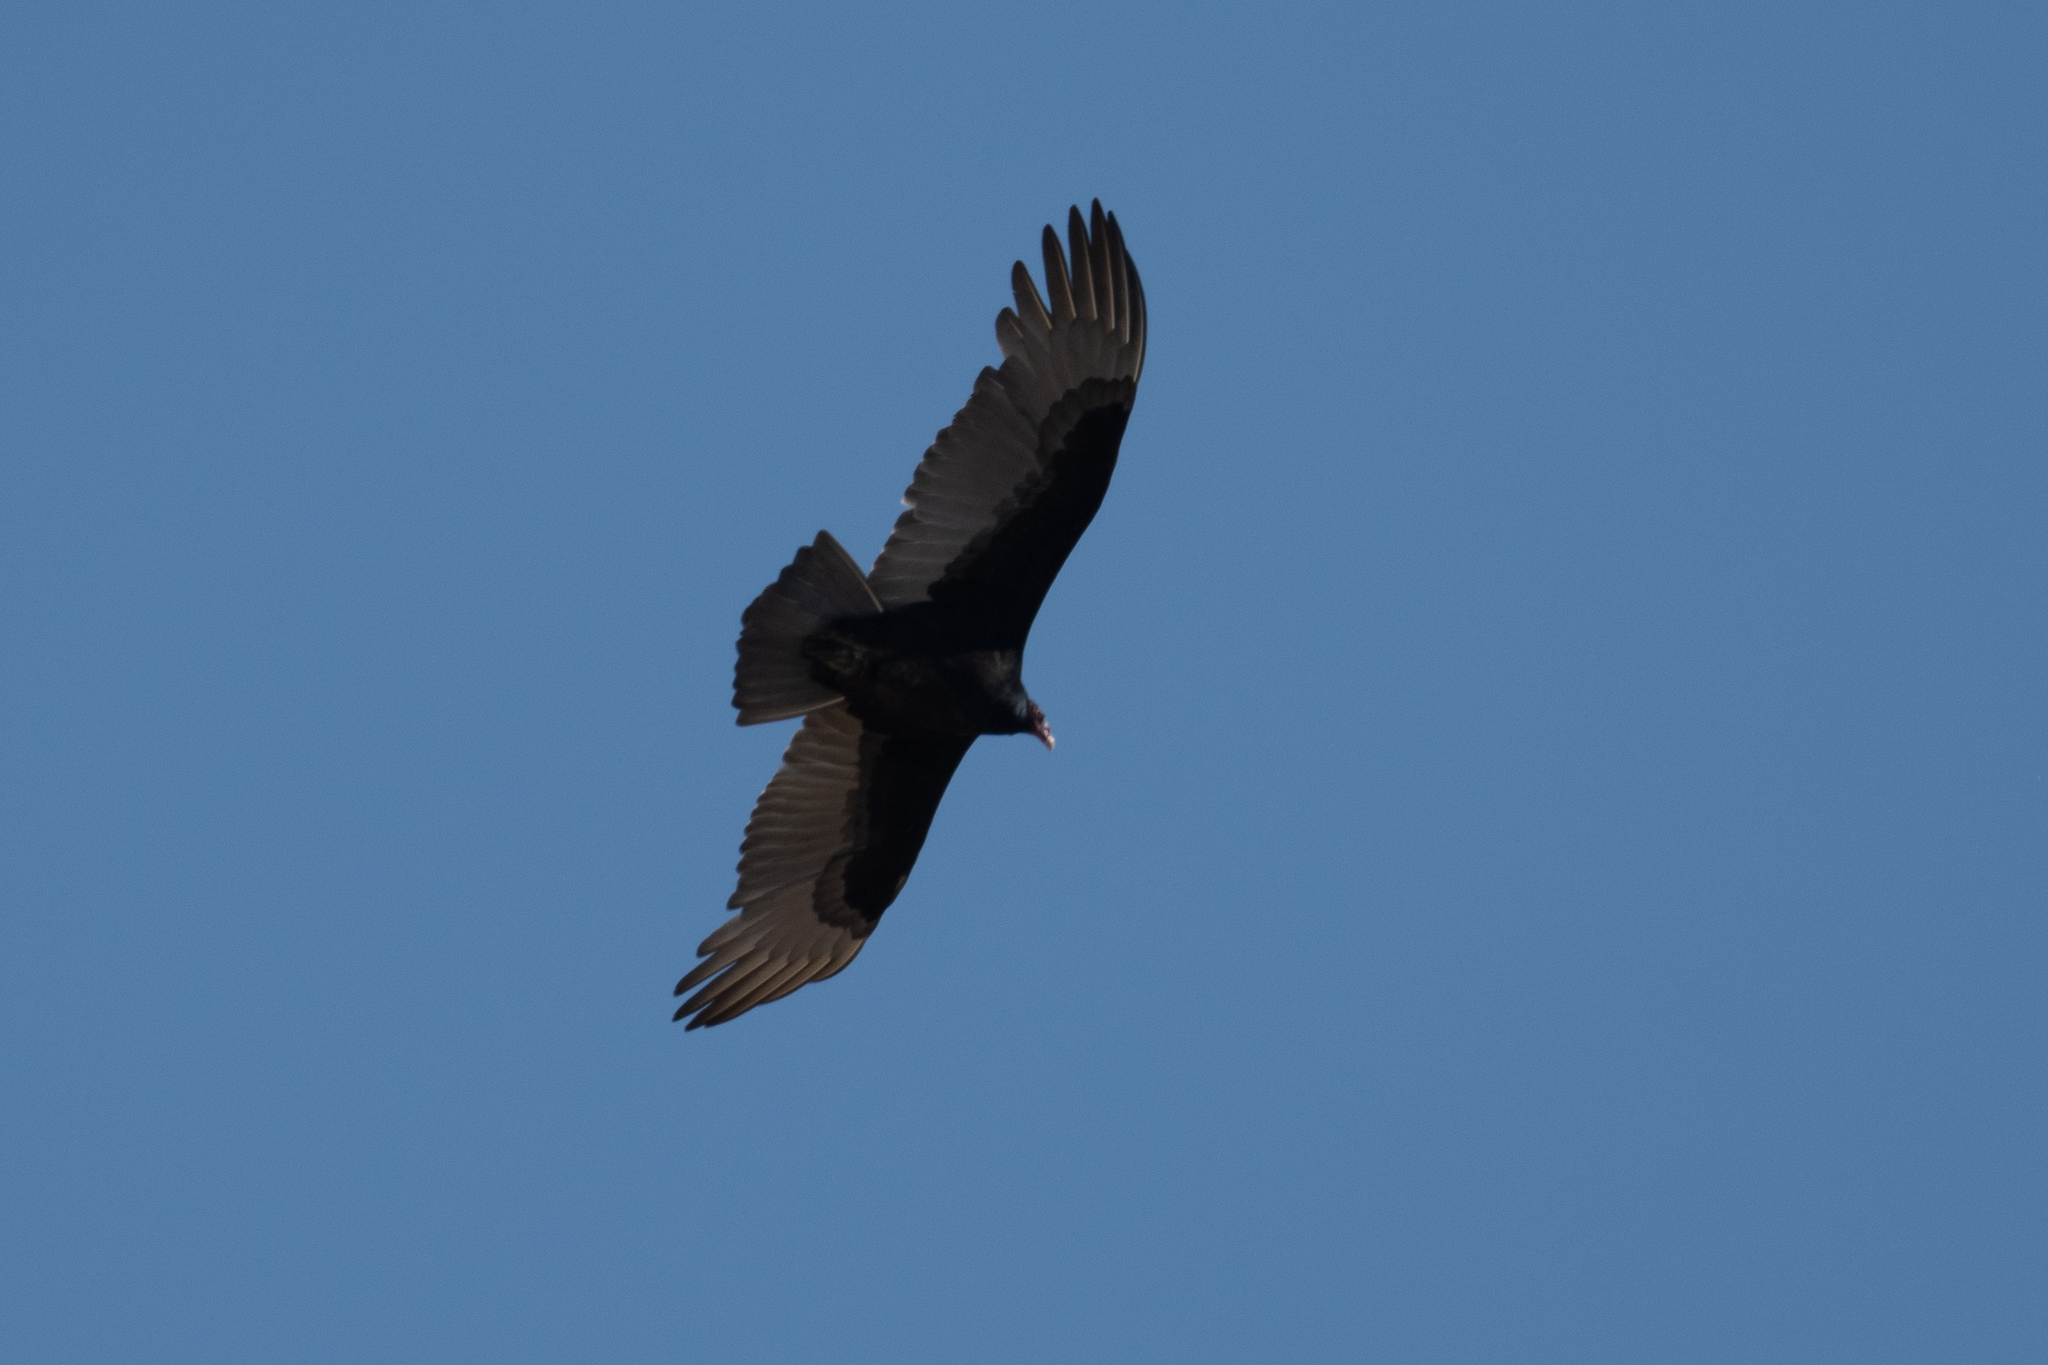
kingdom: Animalia
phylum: Chordata
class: Aves
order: Accipitriformes
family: Cathartidae
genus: Cathartes
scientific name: Cathartes aura
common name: Turkey vulture
